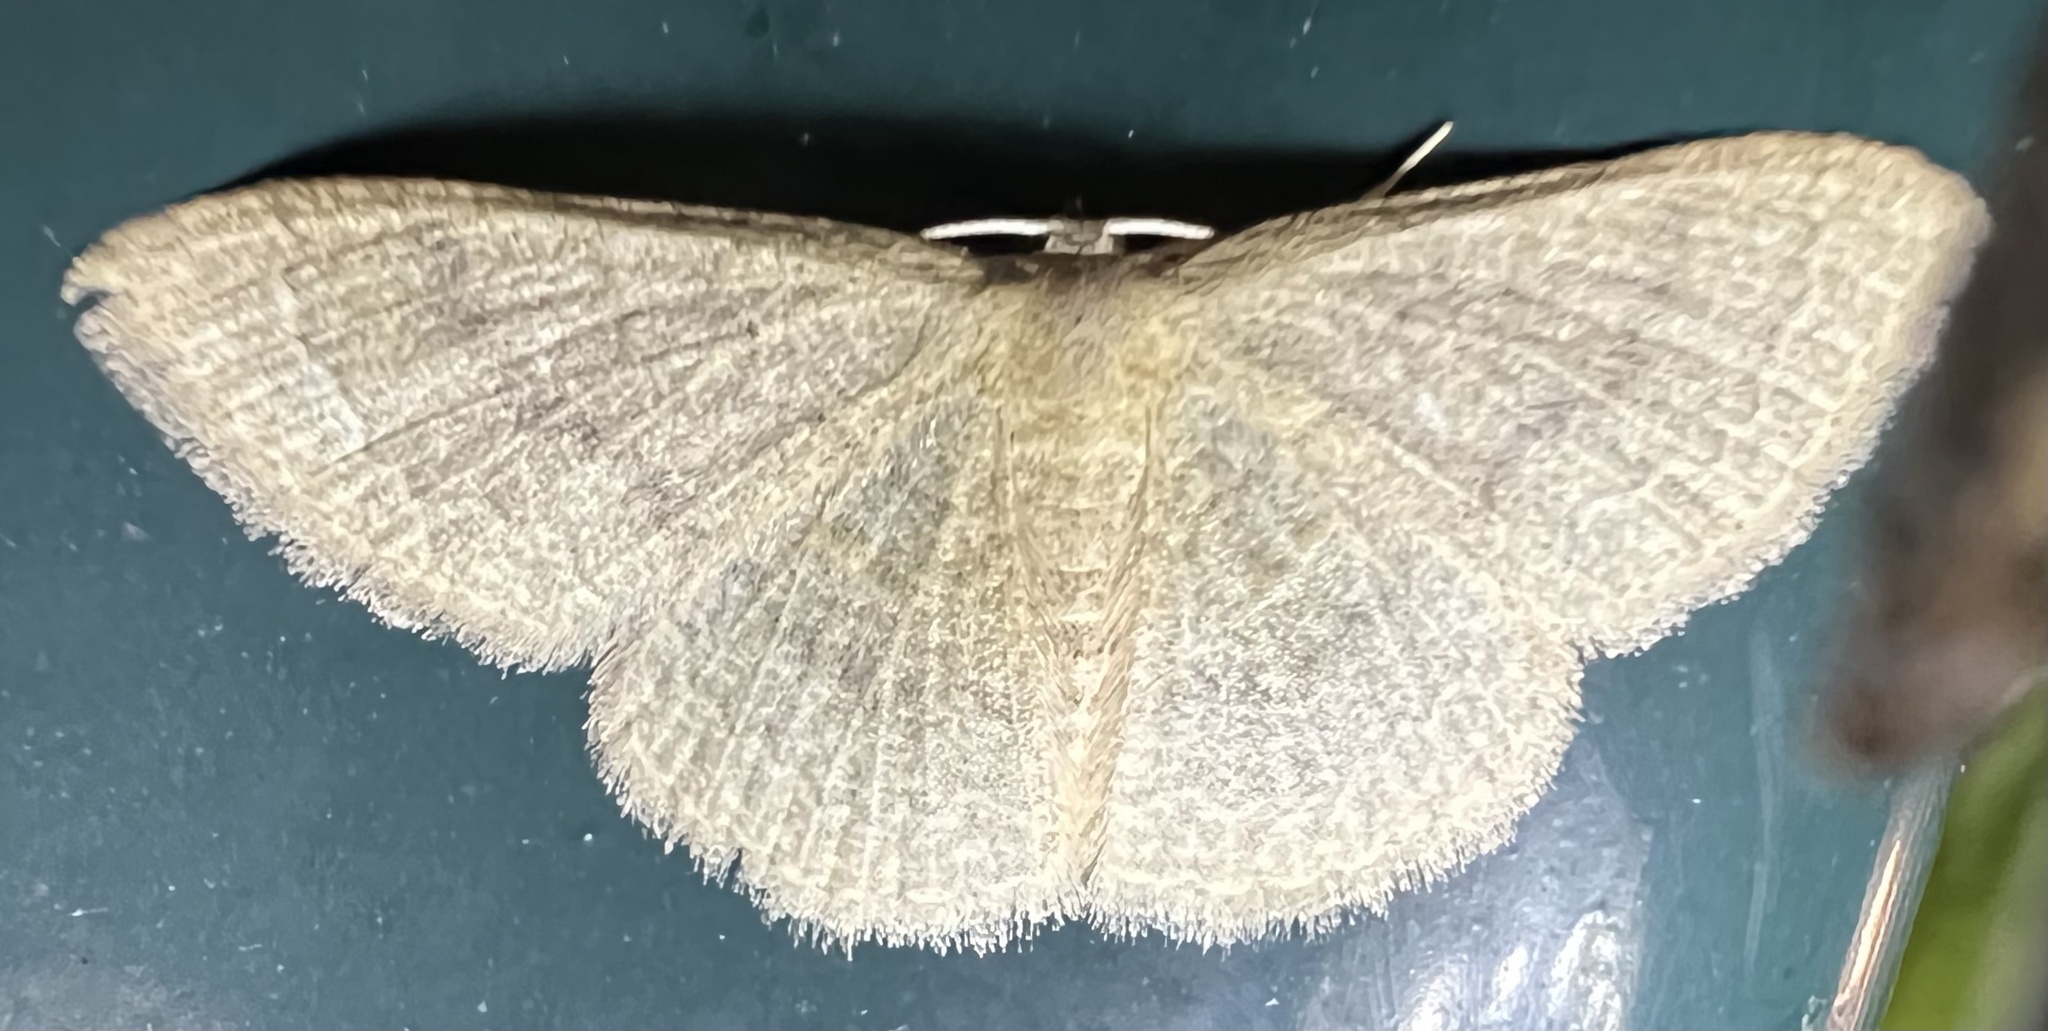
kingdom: Animalia
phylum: Arthropoda
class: Insecta
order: Lepidoptera
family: Geometridae
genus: Pleuroprucha
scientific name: Pleuroprucha insulsaria
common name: Common tan wave
